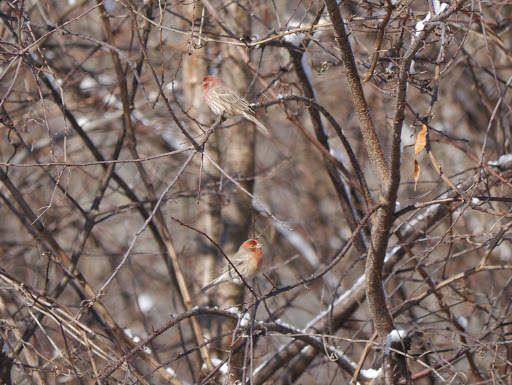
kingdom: Animalia
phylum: Chordata
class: Aves
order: Passeriformes
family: Fringillidae
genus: Haemorhous
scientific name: Haemorhous mexicanus
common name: House finch
